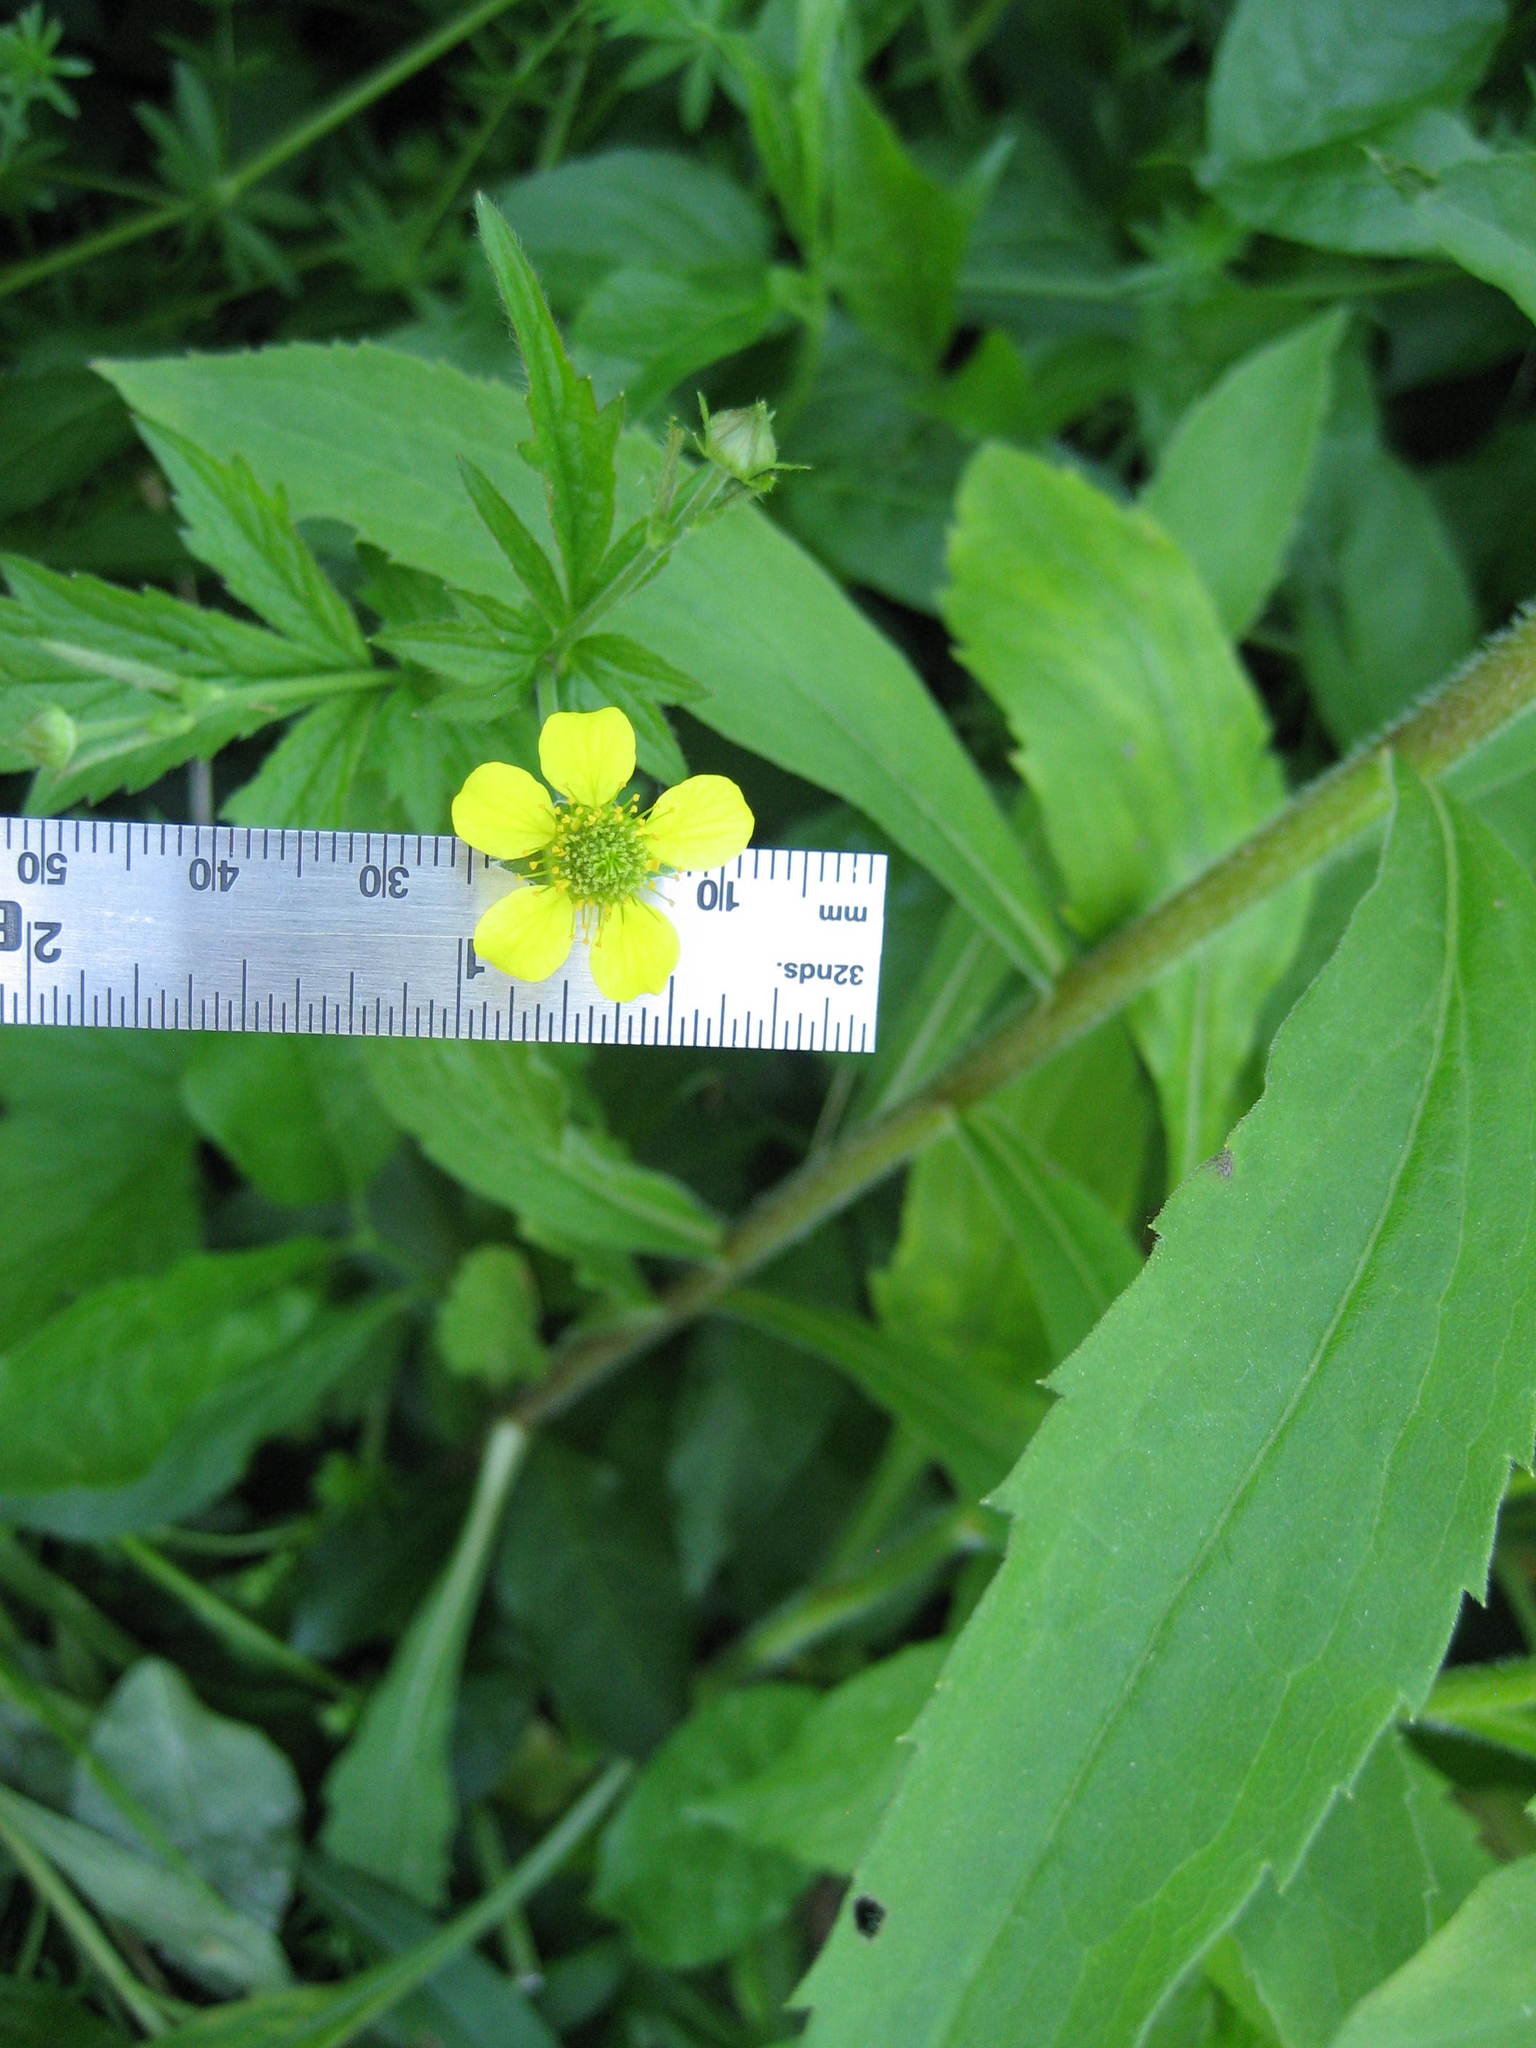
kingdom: Plantae
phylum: Tracheophyta
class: Magnoliopsida
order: Rosales
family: Rosaceae
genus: Geum
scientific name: Geum urbanum
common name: Wood avens
